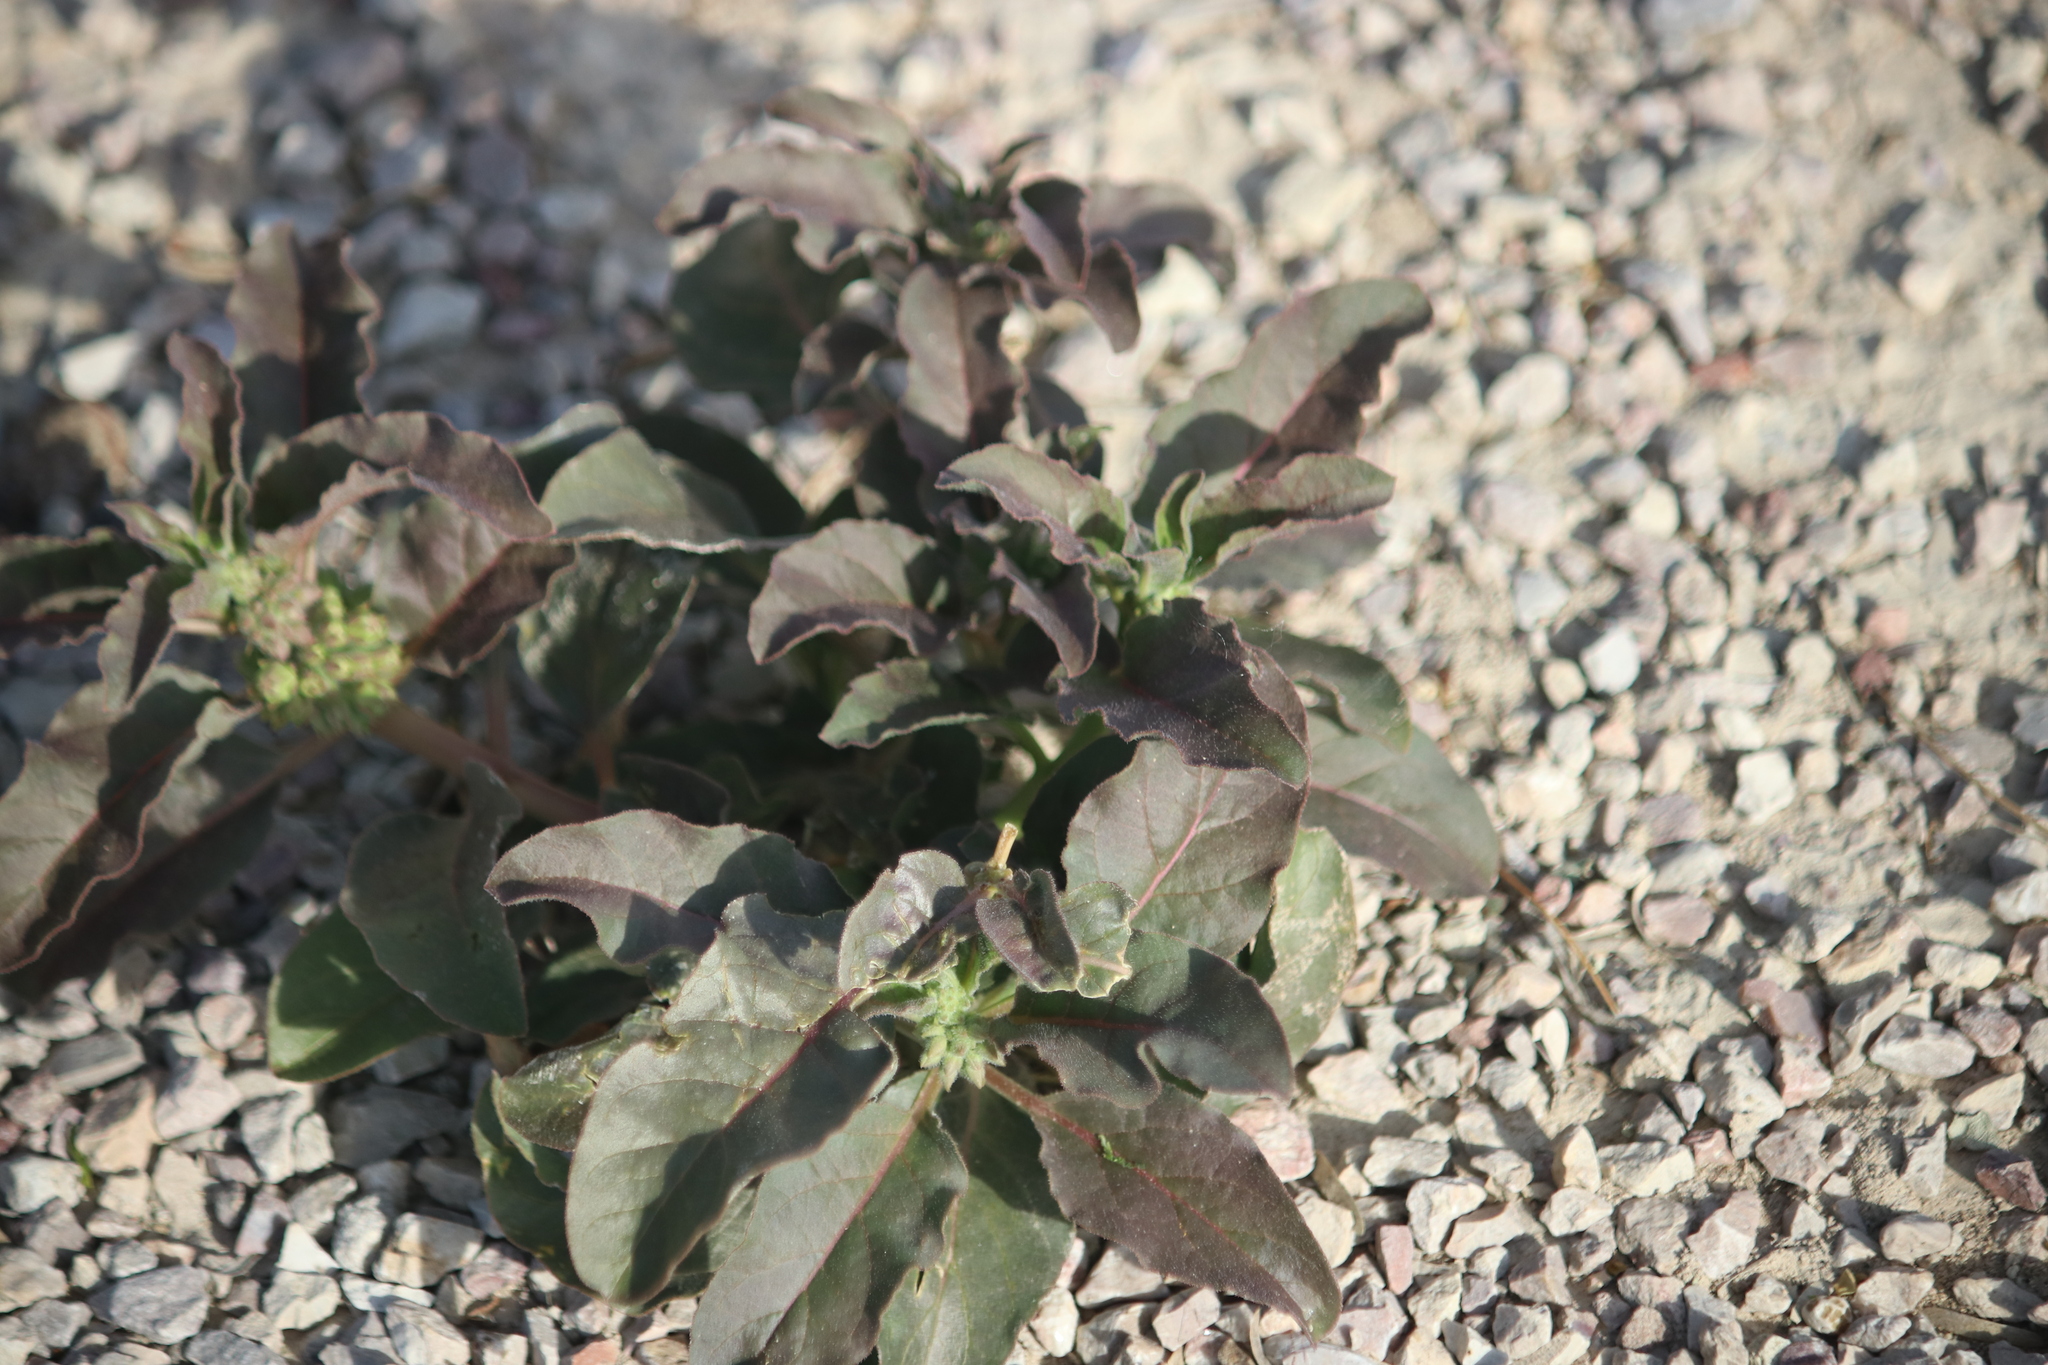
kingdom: Plantae
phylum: Tracheophyta
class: Magnoliopsida
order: Gentianales
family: Apocynaceae
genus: Asclepias
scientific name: Asclepias oenotheroides
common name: Zizotes milkweed
